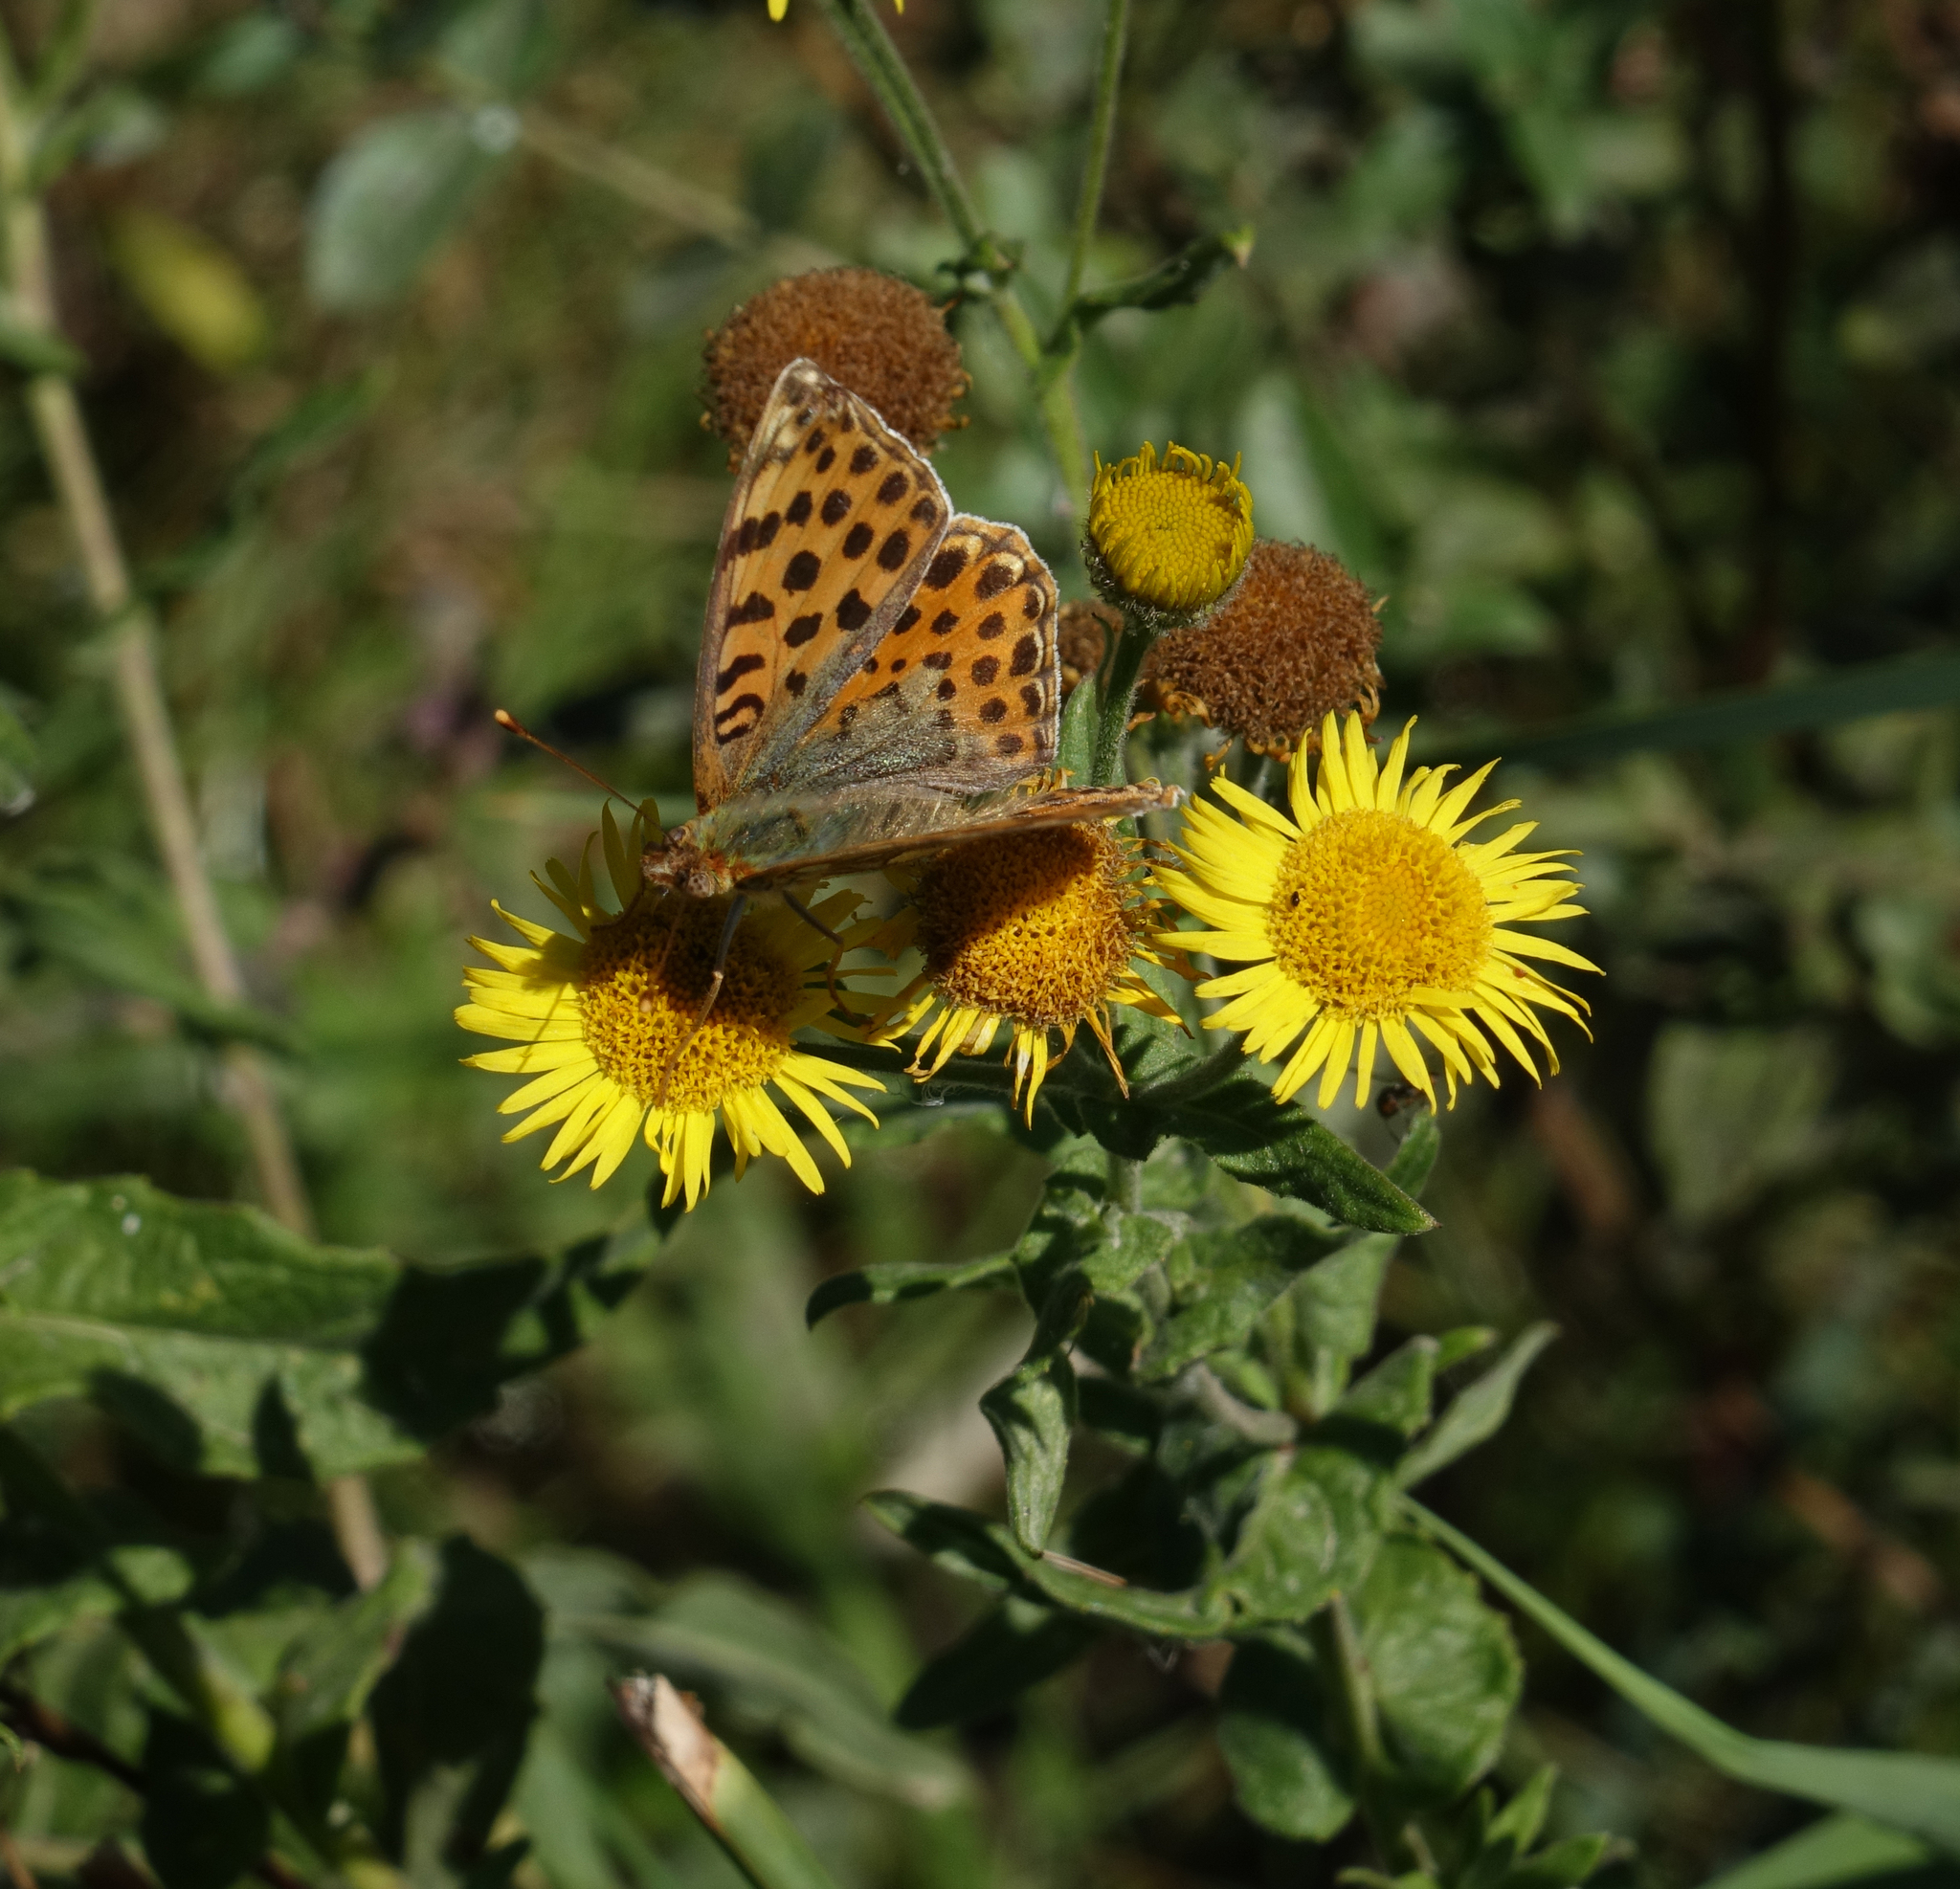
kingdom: Plantae
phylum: Tracheophyta
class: Magnoliopsida
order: Asterales
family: Asteraceae
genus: Pentanema
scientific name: Pentanema britannicum
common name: British elecampane
